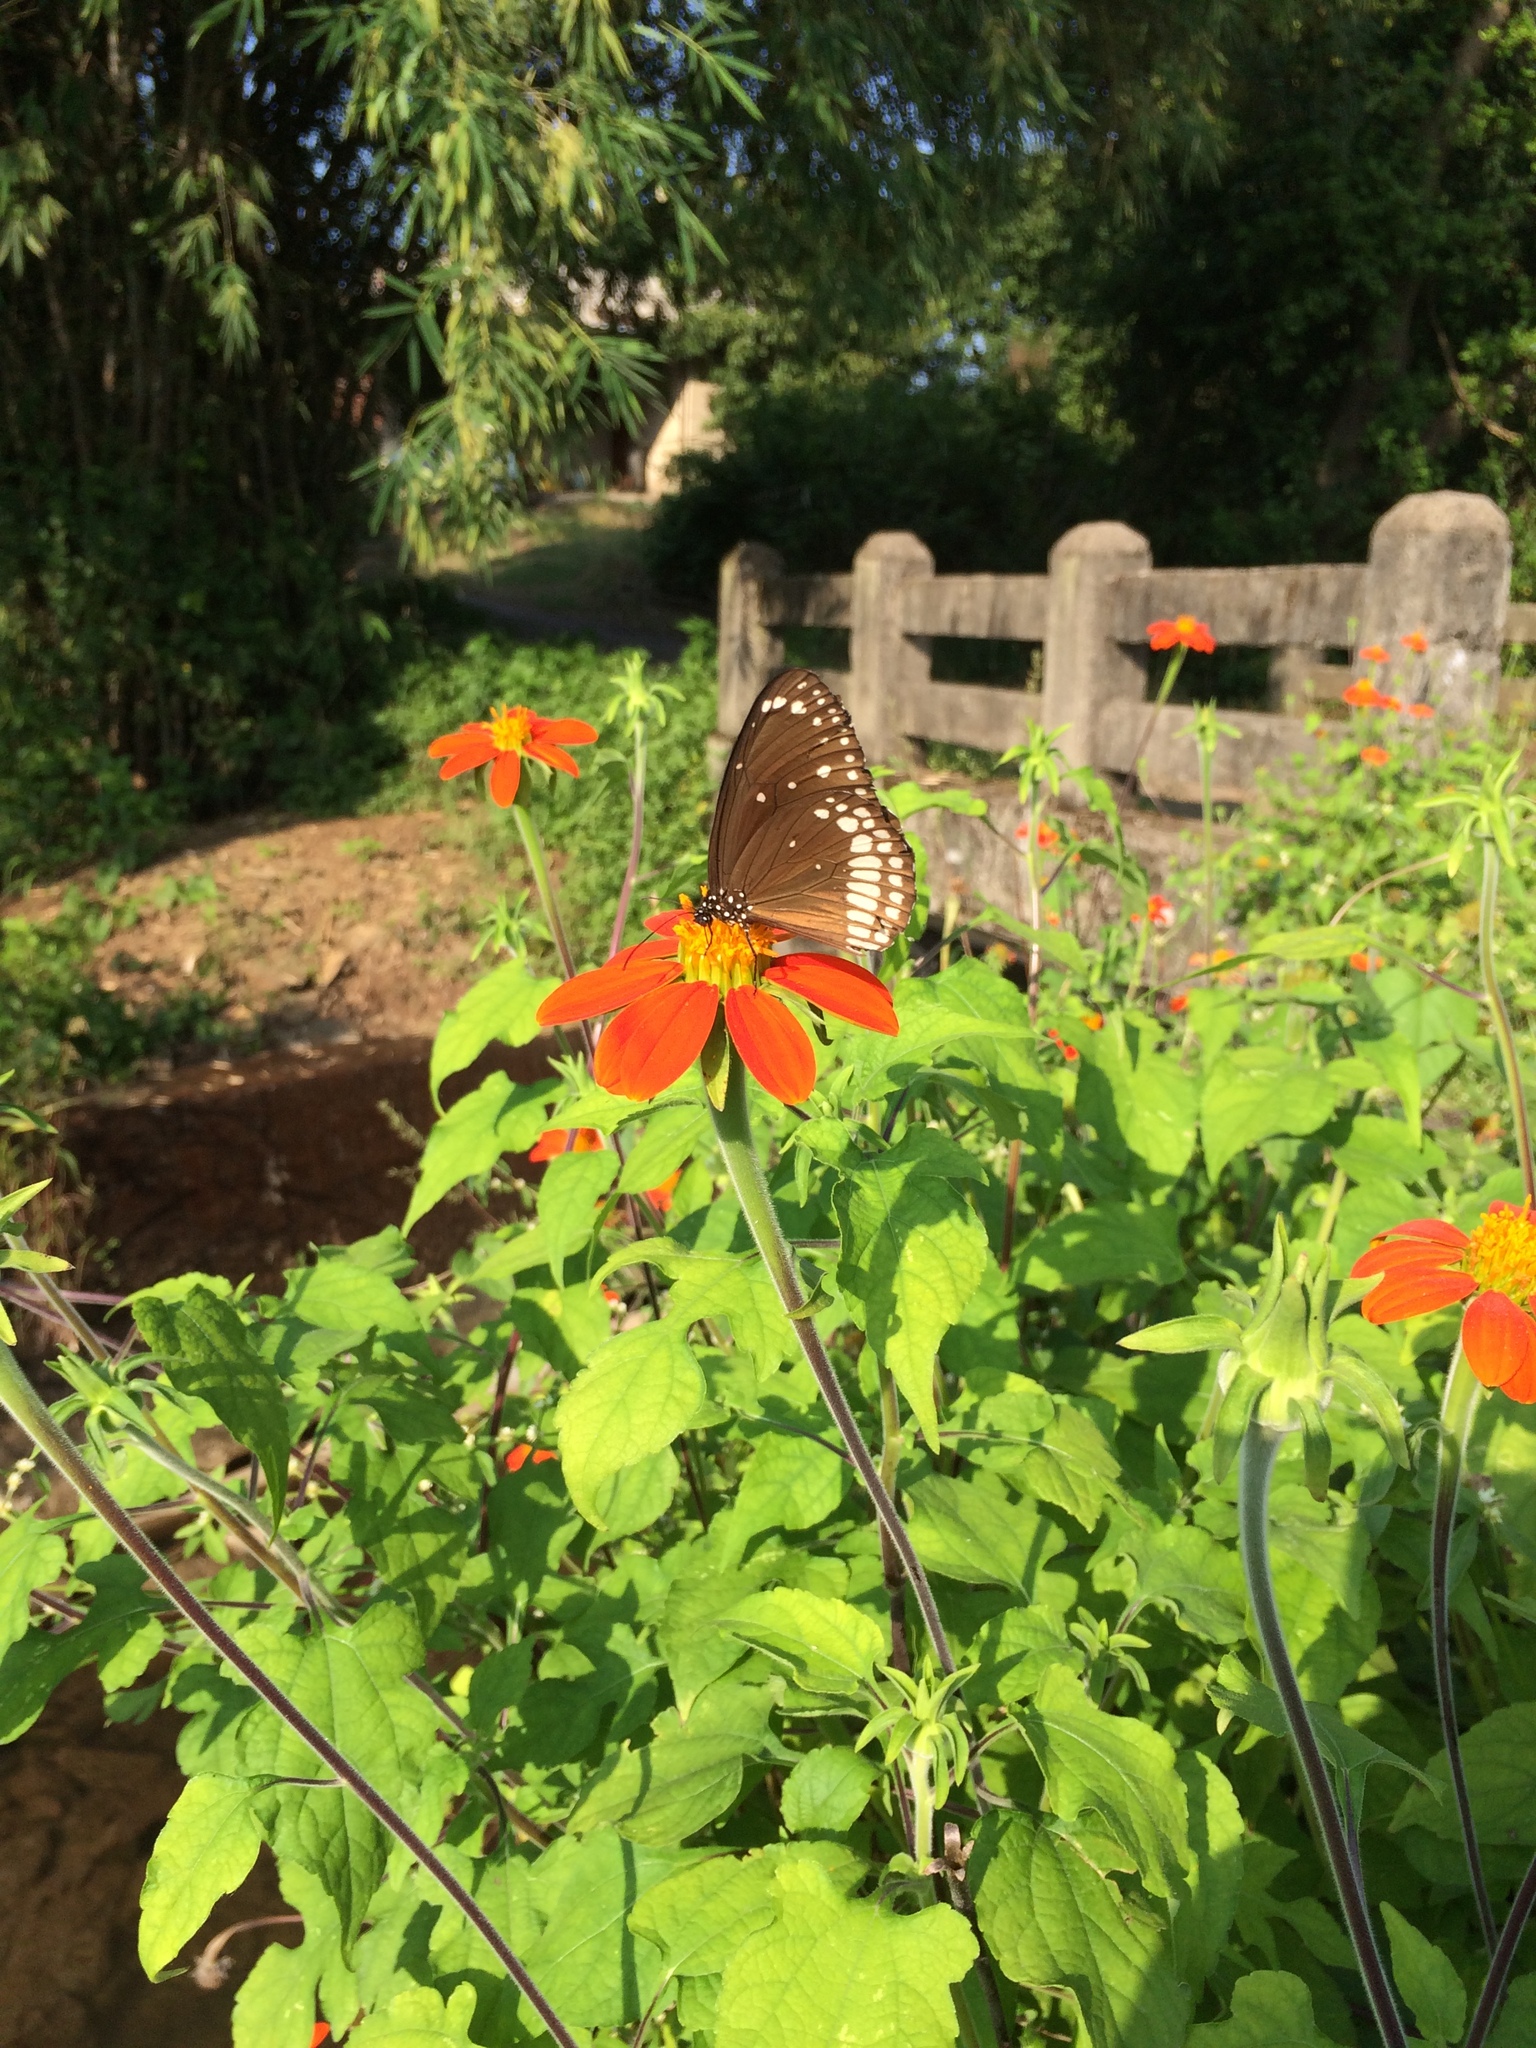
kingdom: Animalia
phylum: Arthropoda
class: Insecta
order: Lepidoptera
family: Nymphalidae
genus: Euploea
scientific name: Euploea core
